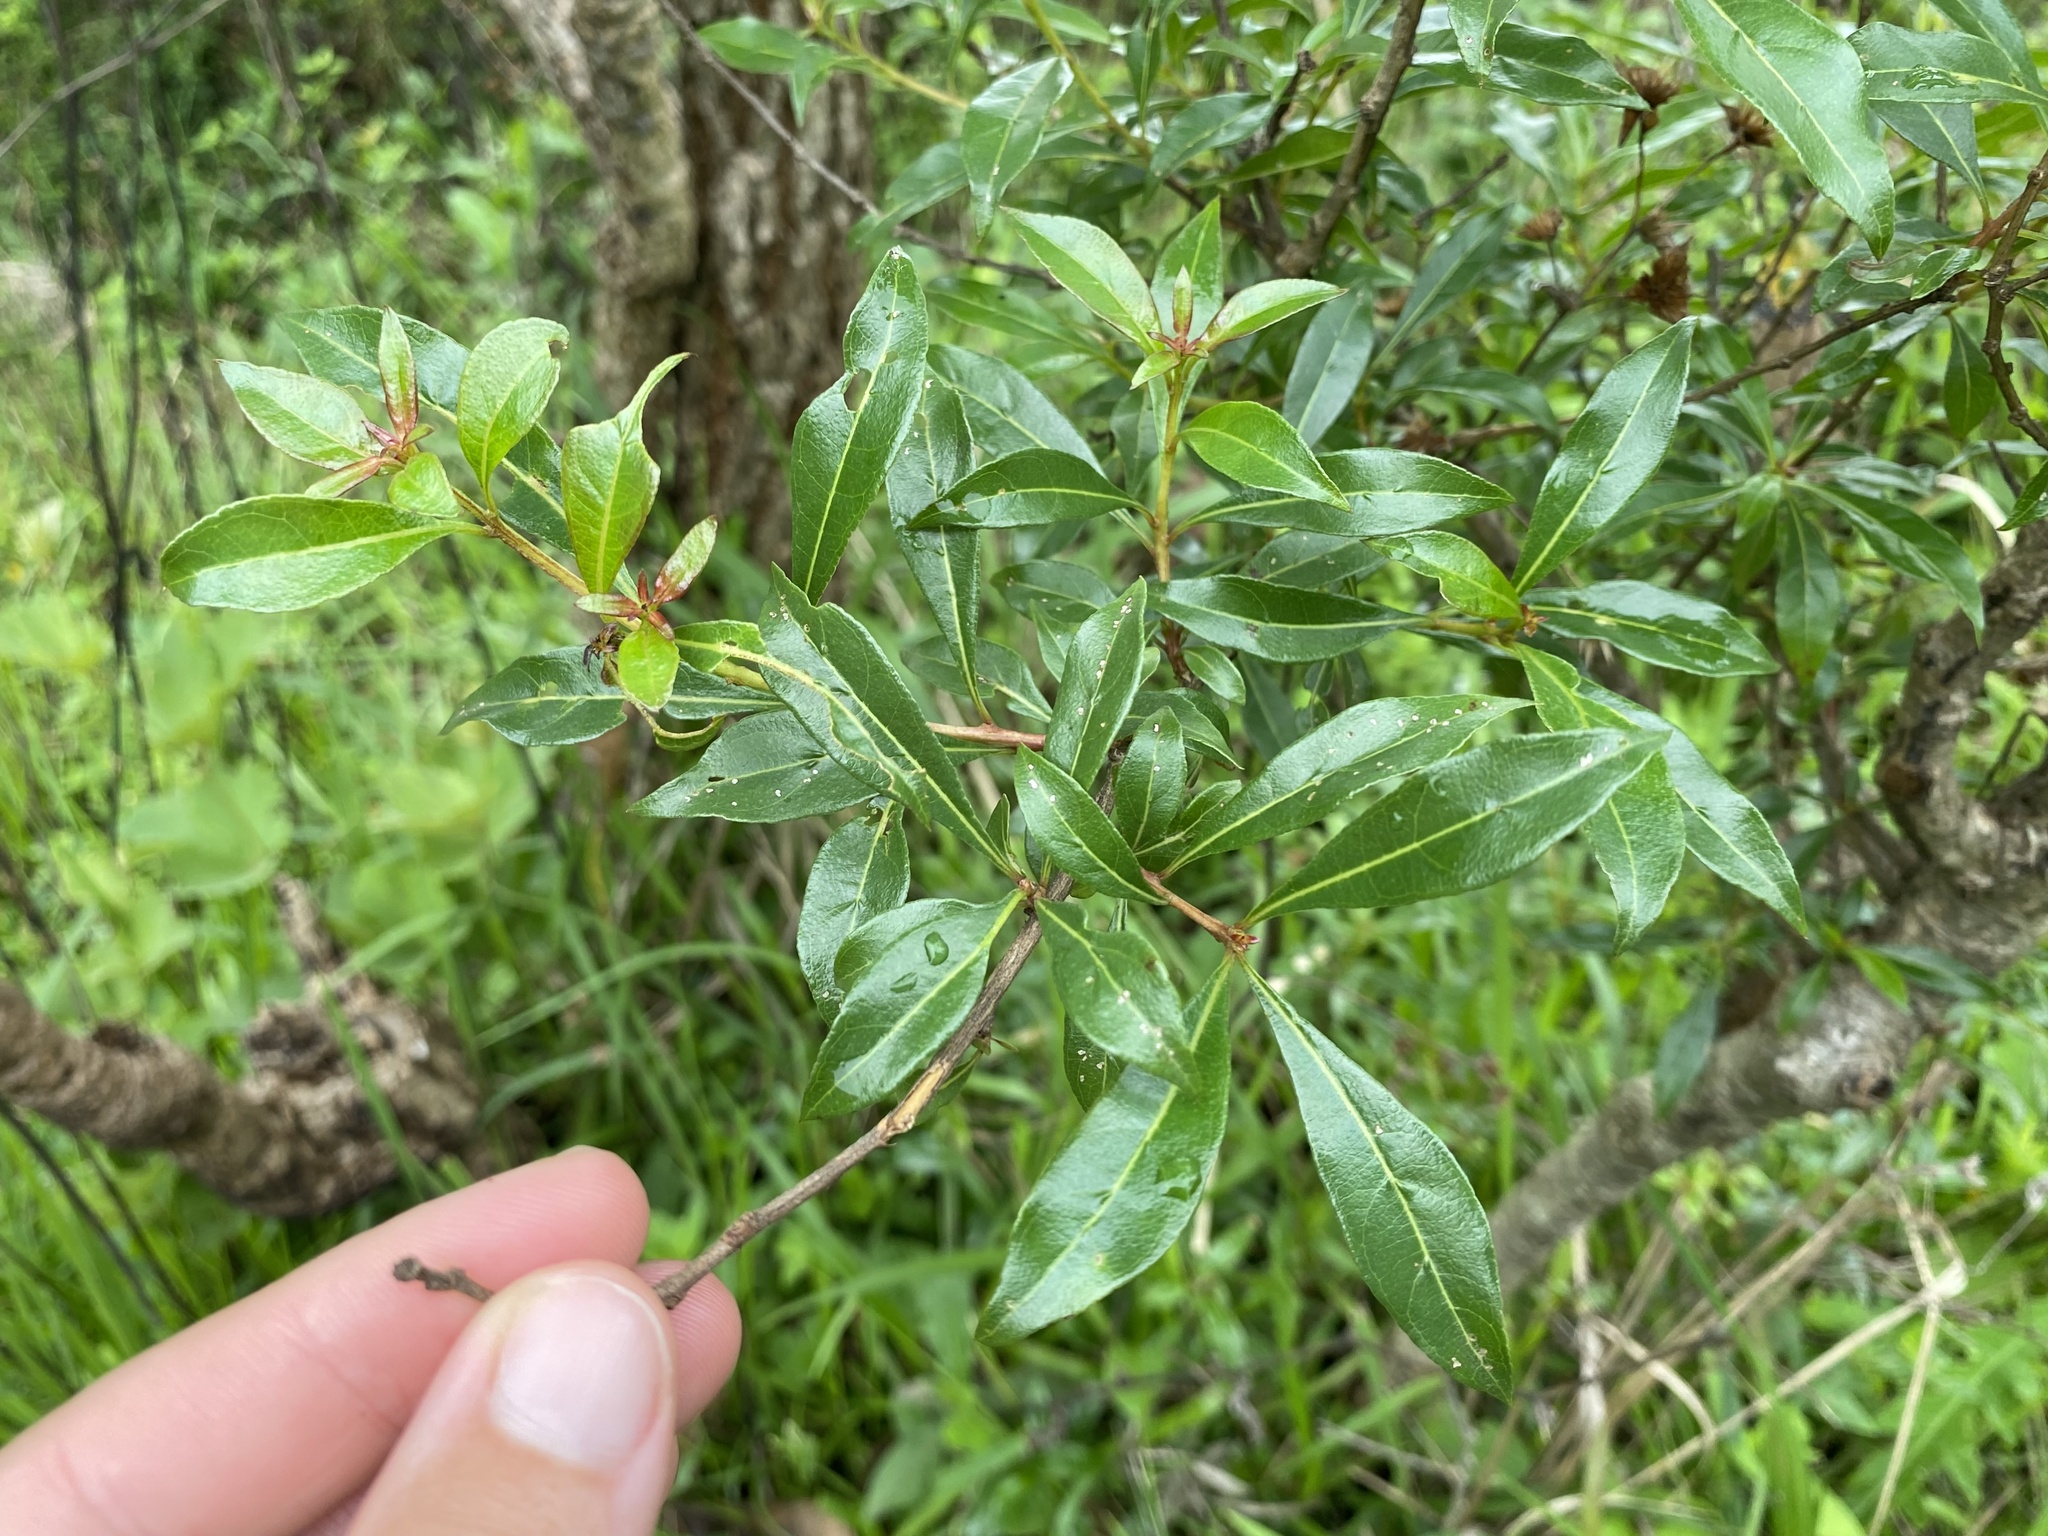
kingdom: Plantae
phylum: Tracheophyta
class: Magnoliopsida
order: Myrtales
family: Myrtaceae
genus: Heteropyxis
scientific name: Heteropyxis natalensis
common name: Lavender tree
